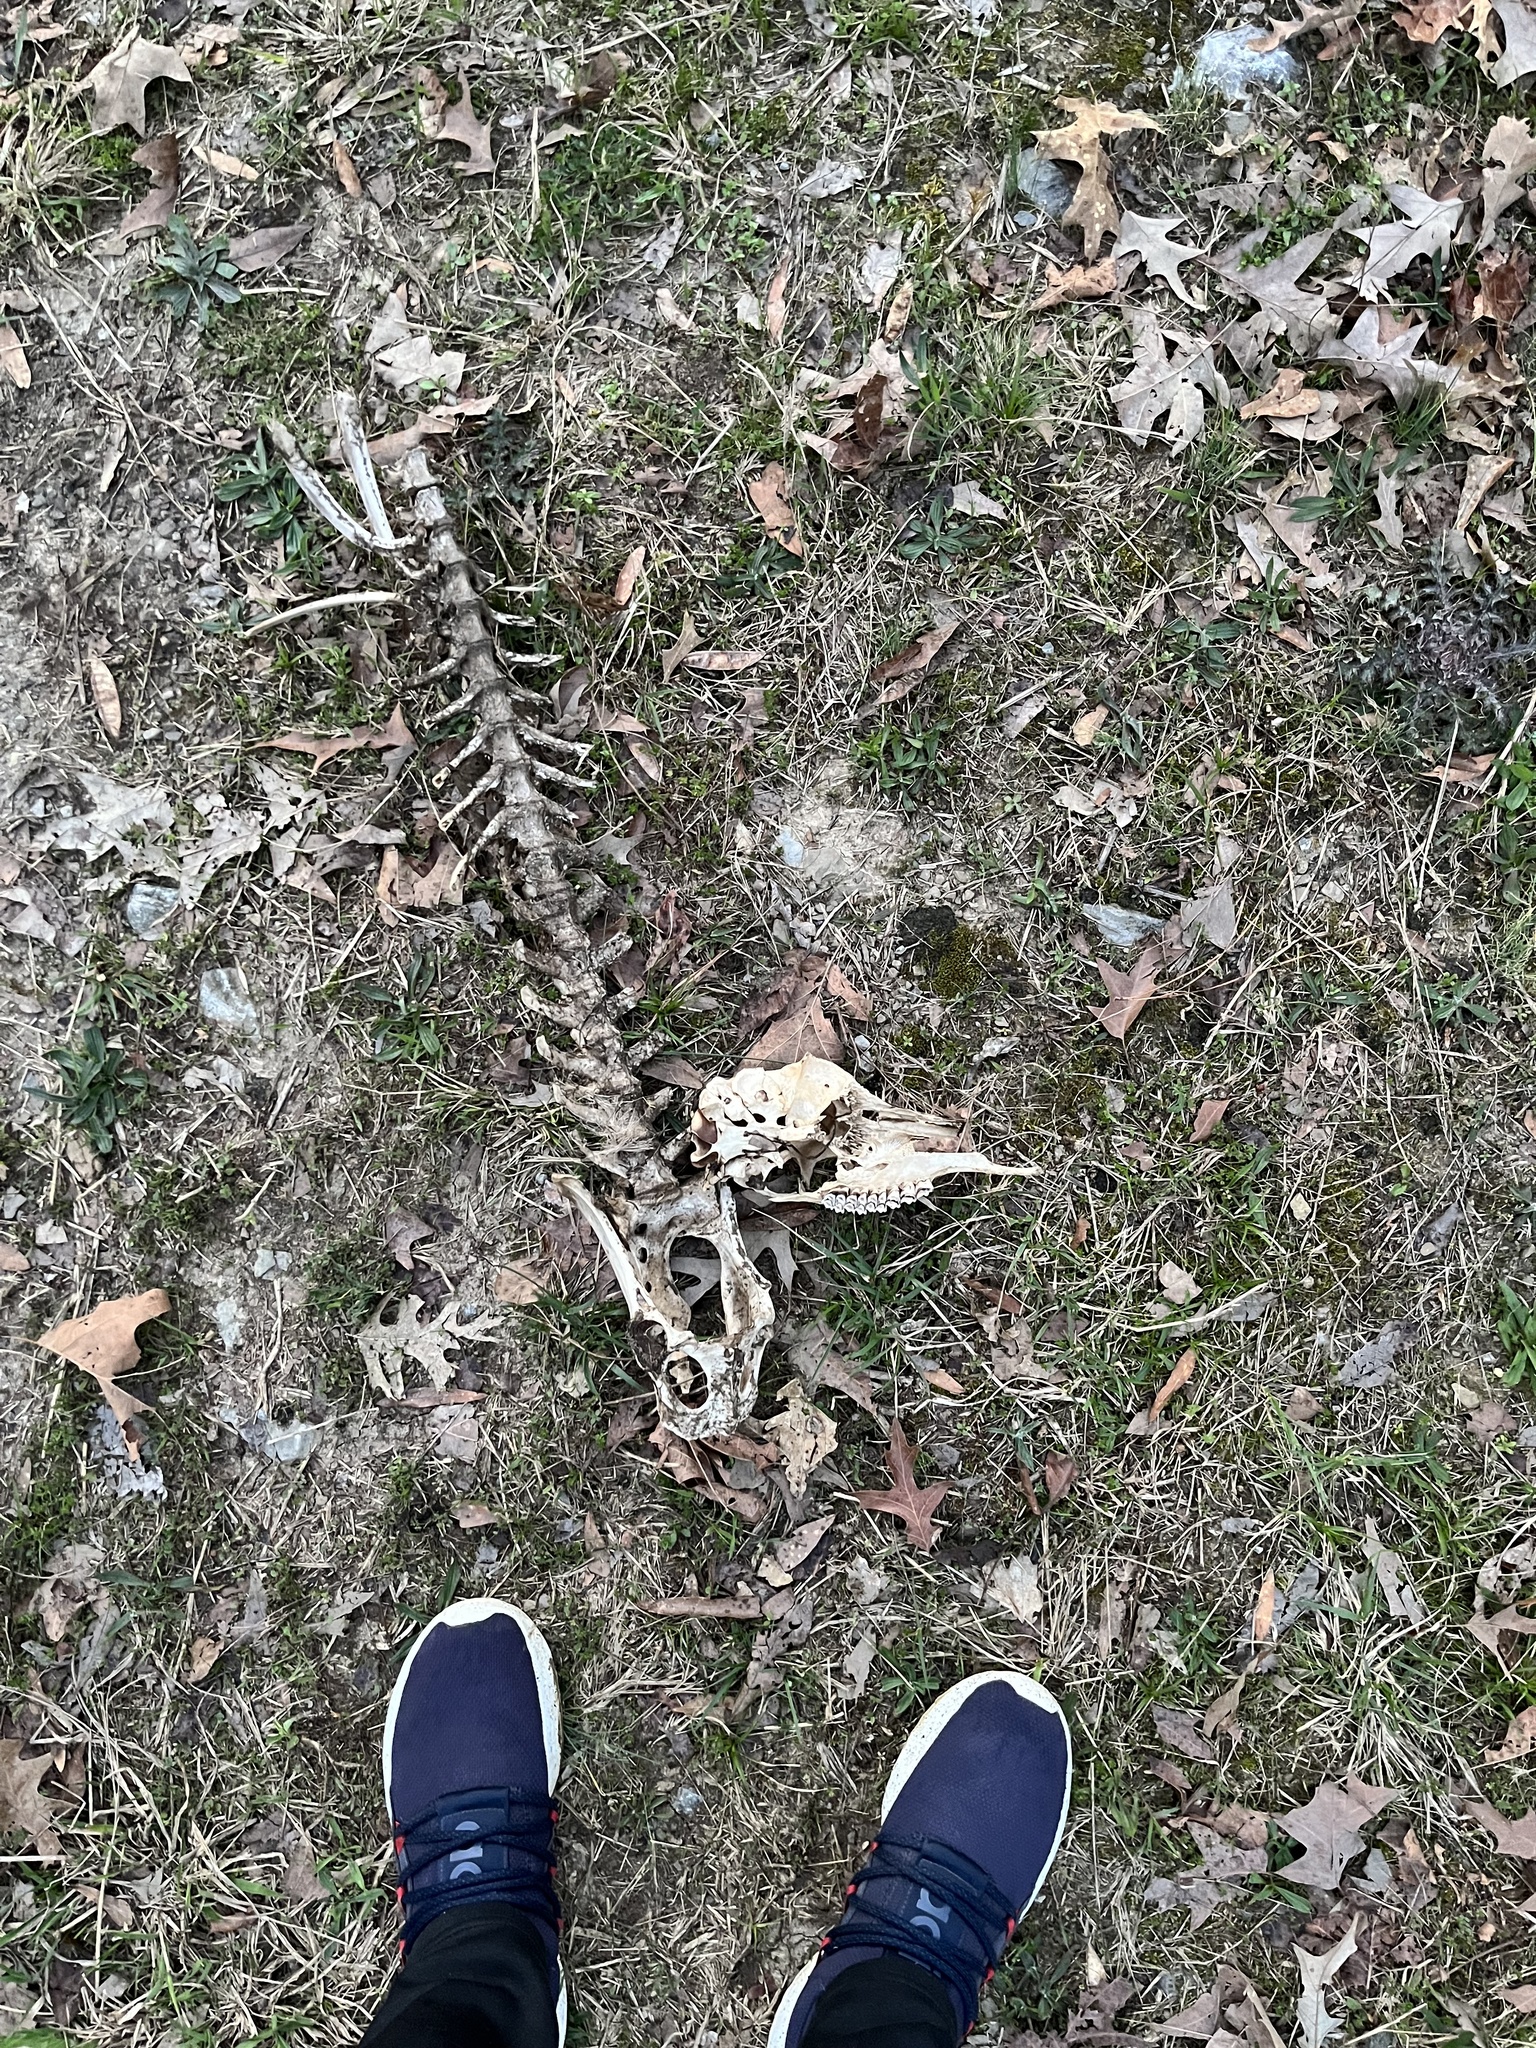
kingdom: Animalia
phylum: Chordata
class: Mammalia
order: Artiodactyla
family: Cervidae
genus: Odocoileus
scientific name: Odocoileus virginianus
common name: White-tailed deer
